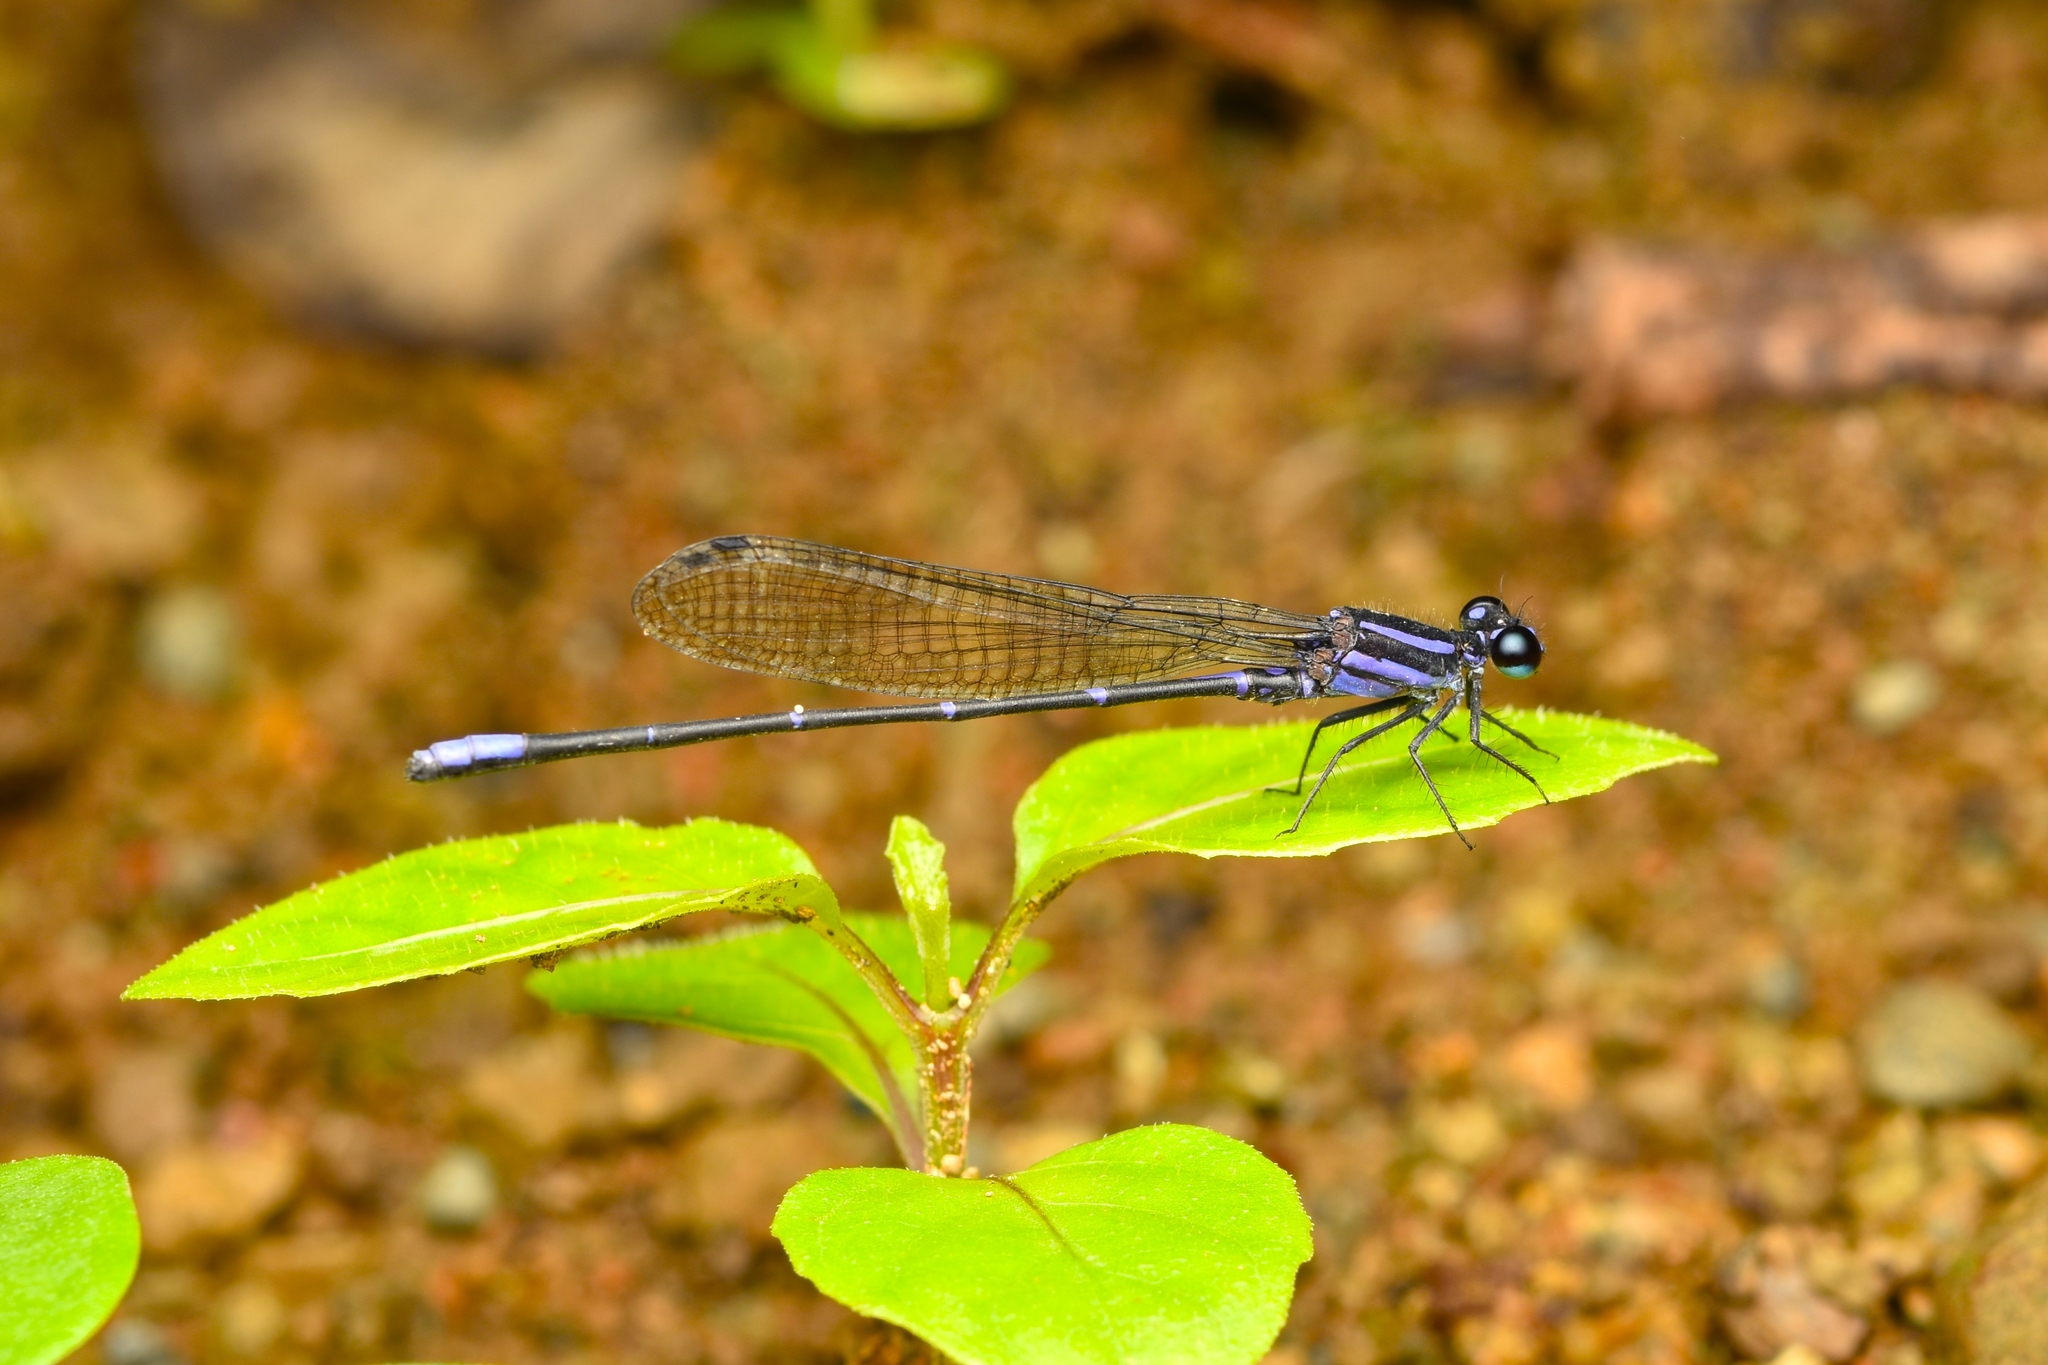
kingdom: Animalia
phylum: Arthropoda
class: Insecta
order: Odonata
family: Coenagrionidae
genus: Argia
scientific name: Argia pulla
